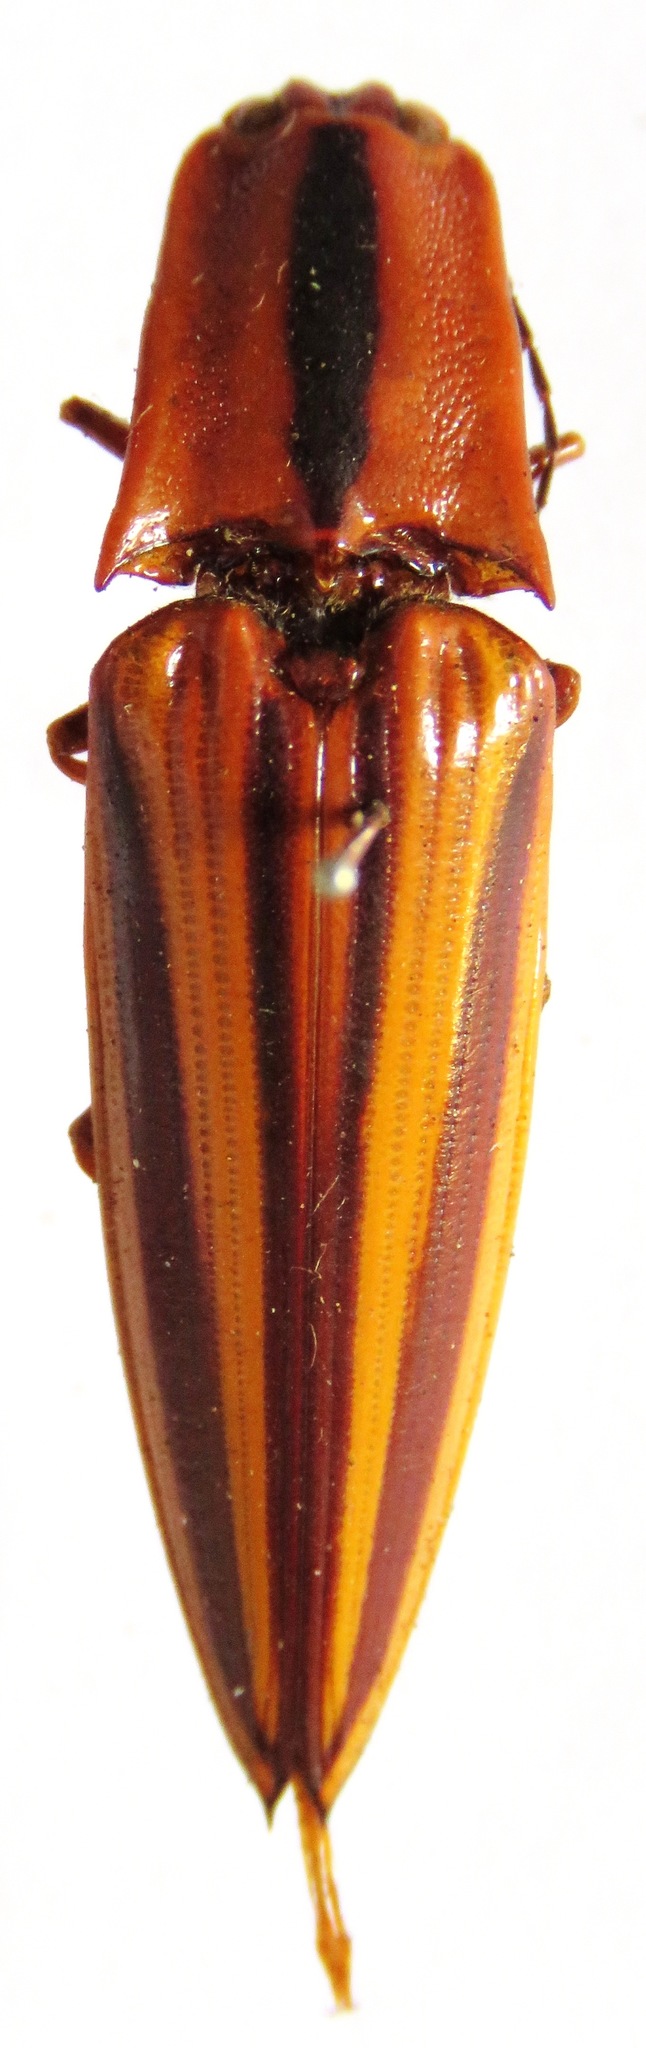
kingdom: Animalia
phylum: Arthropoda
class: Insecta
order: Coleoptera
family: Elateridae
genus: Semiotus
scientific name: Semiotus
